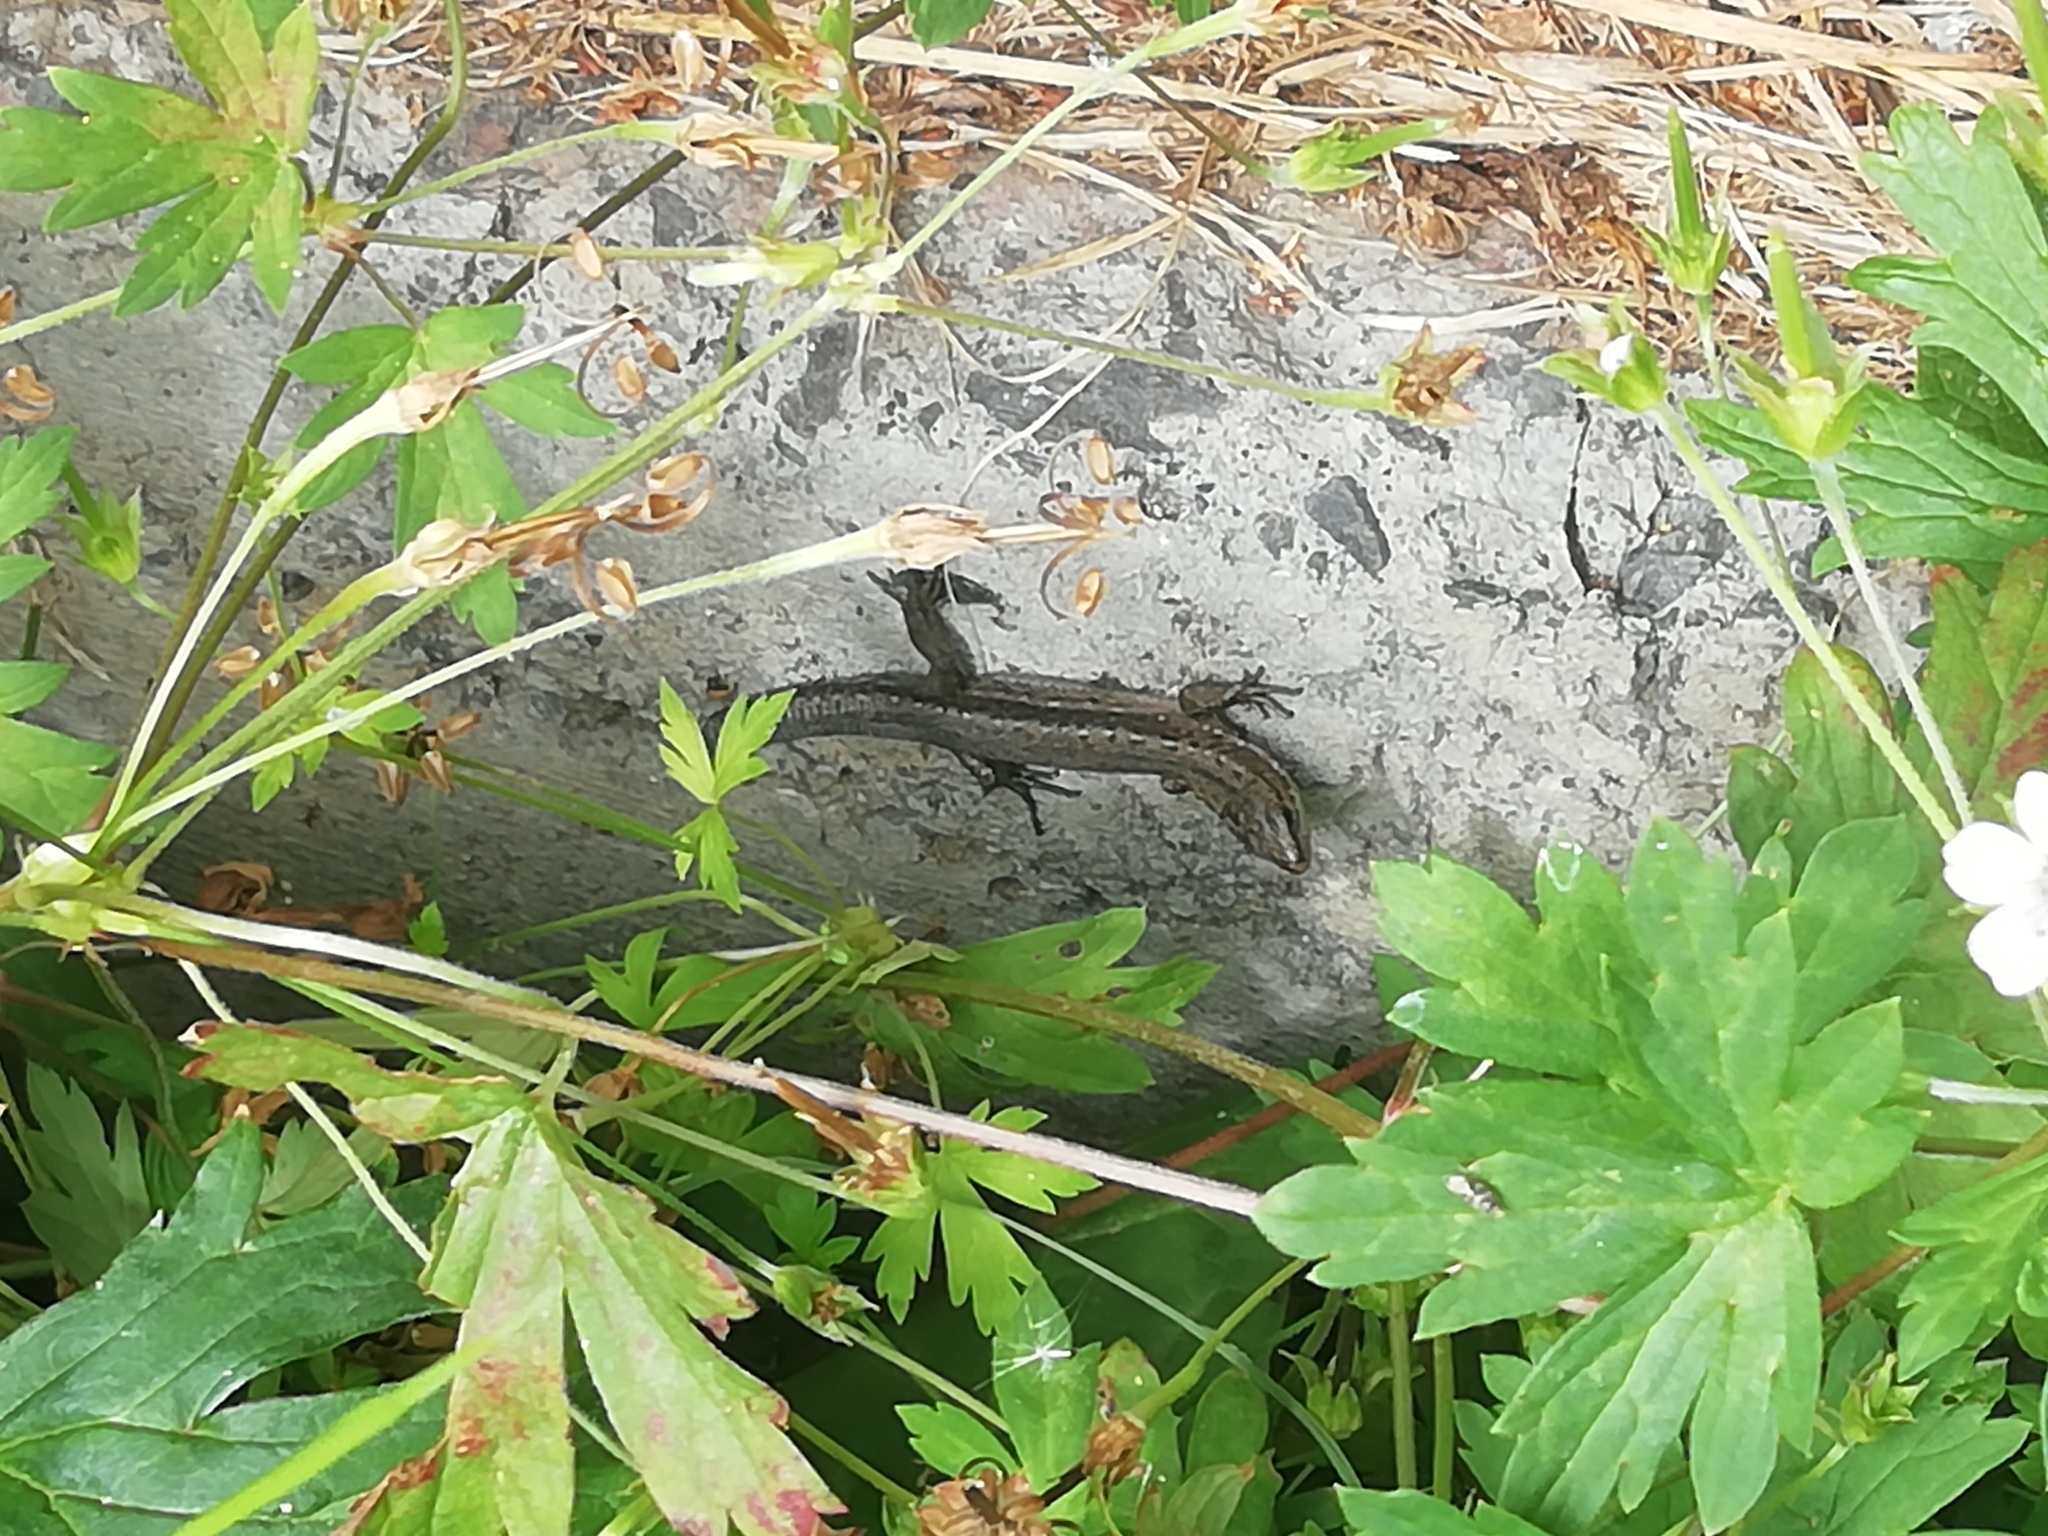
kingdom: Animalia
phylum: Chordata
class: Squamata
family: Lacertidae
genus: Zootoca
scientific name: Zootoca vivipara
